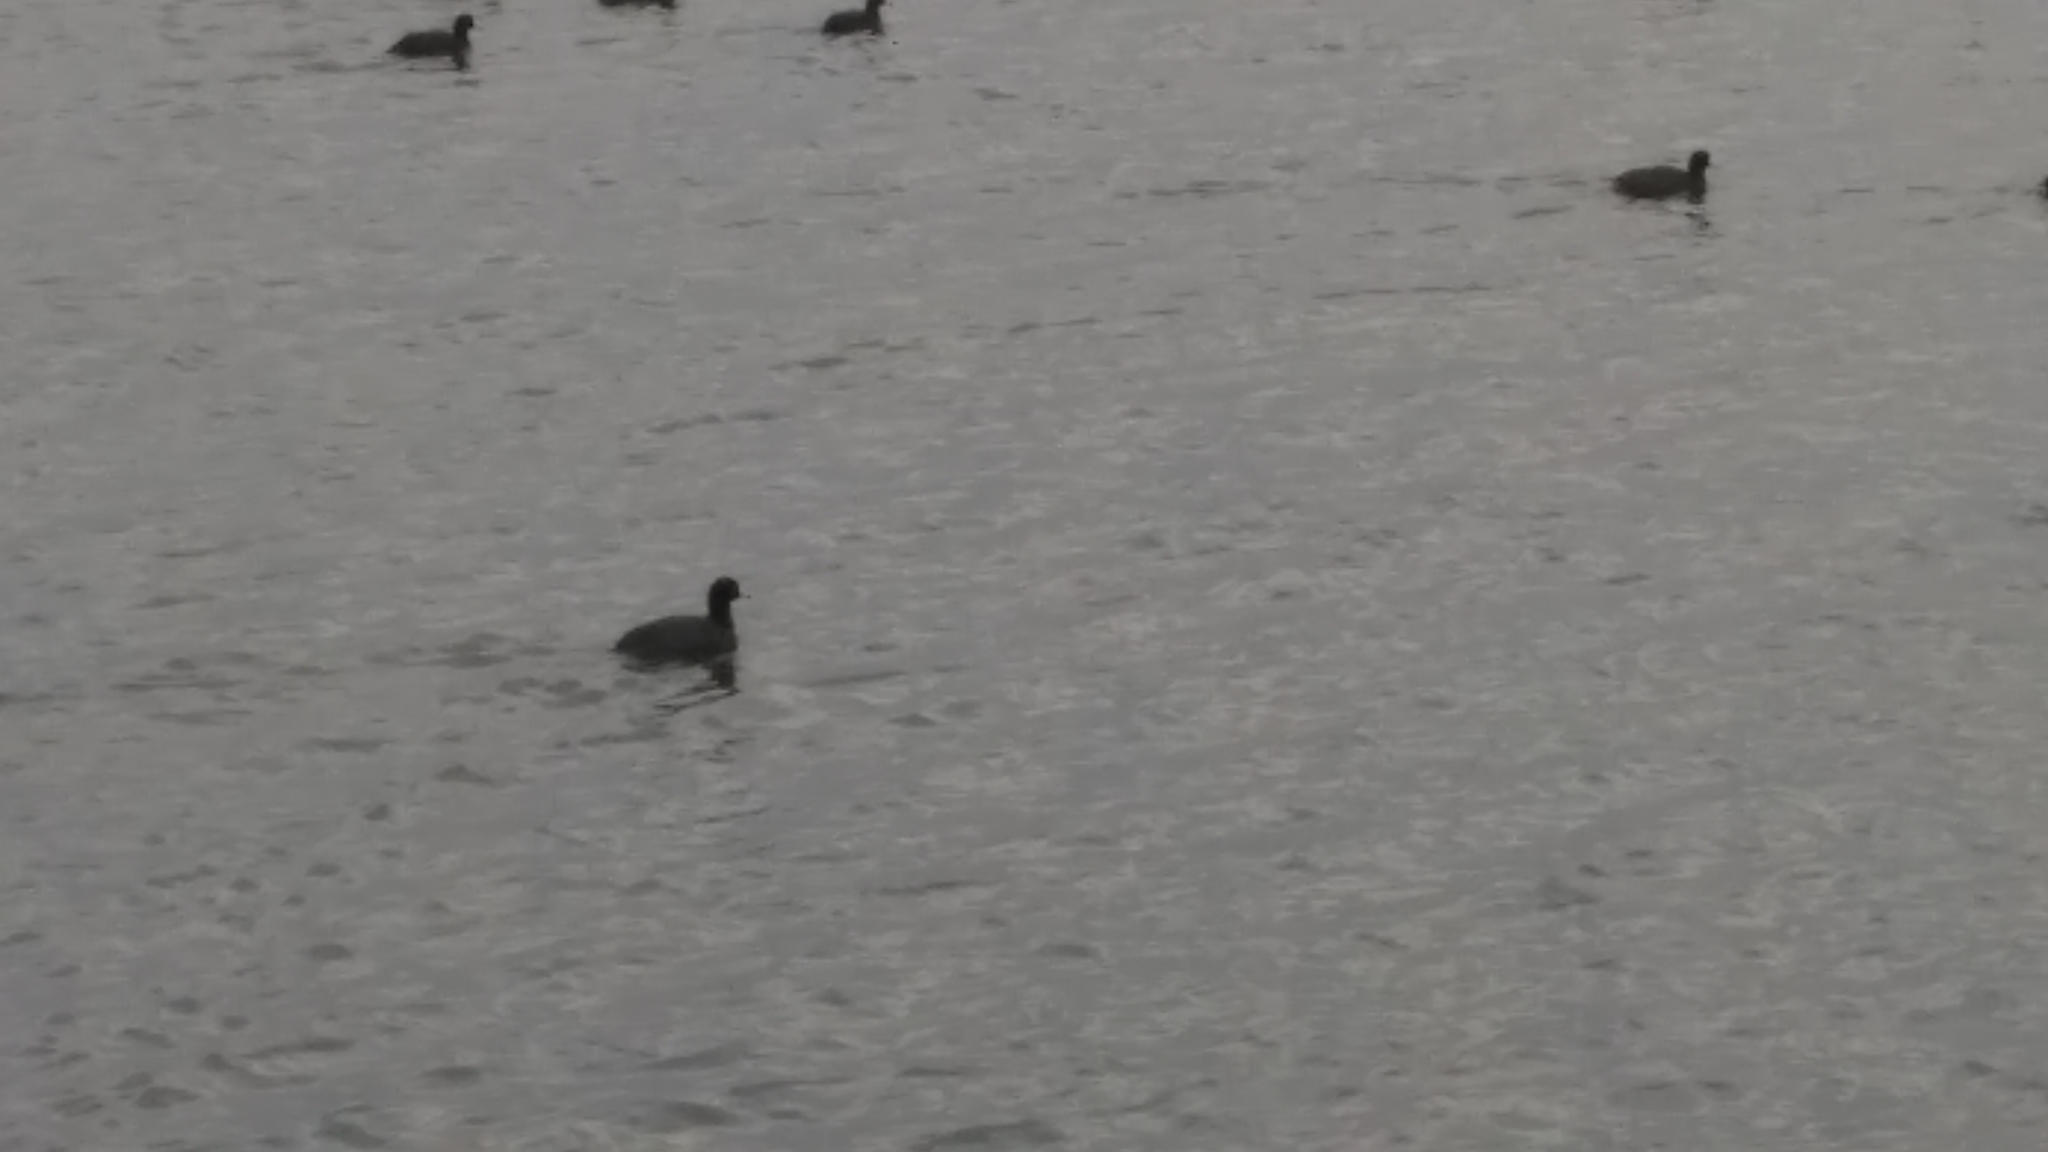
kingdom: Animalia
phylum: Chordata
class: Aves
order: Gruiformes
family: Rallidae
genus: Fulica
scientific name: Fulica americana
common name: American coot
